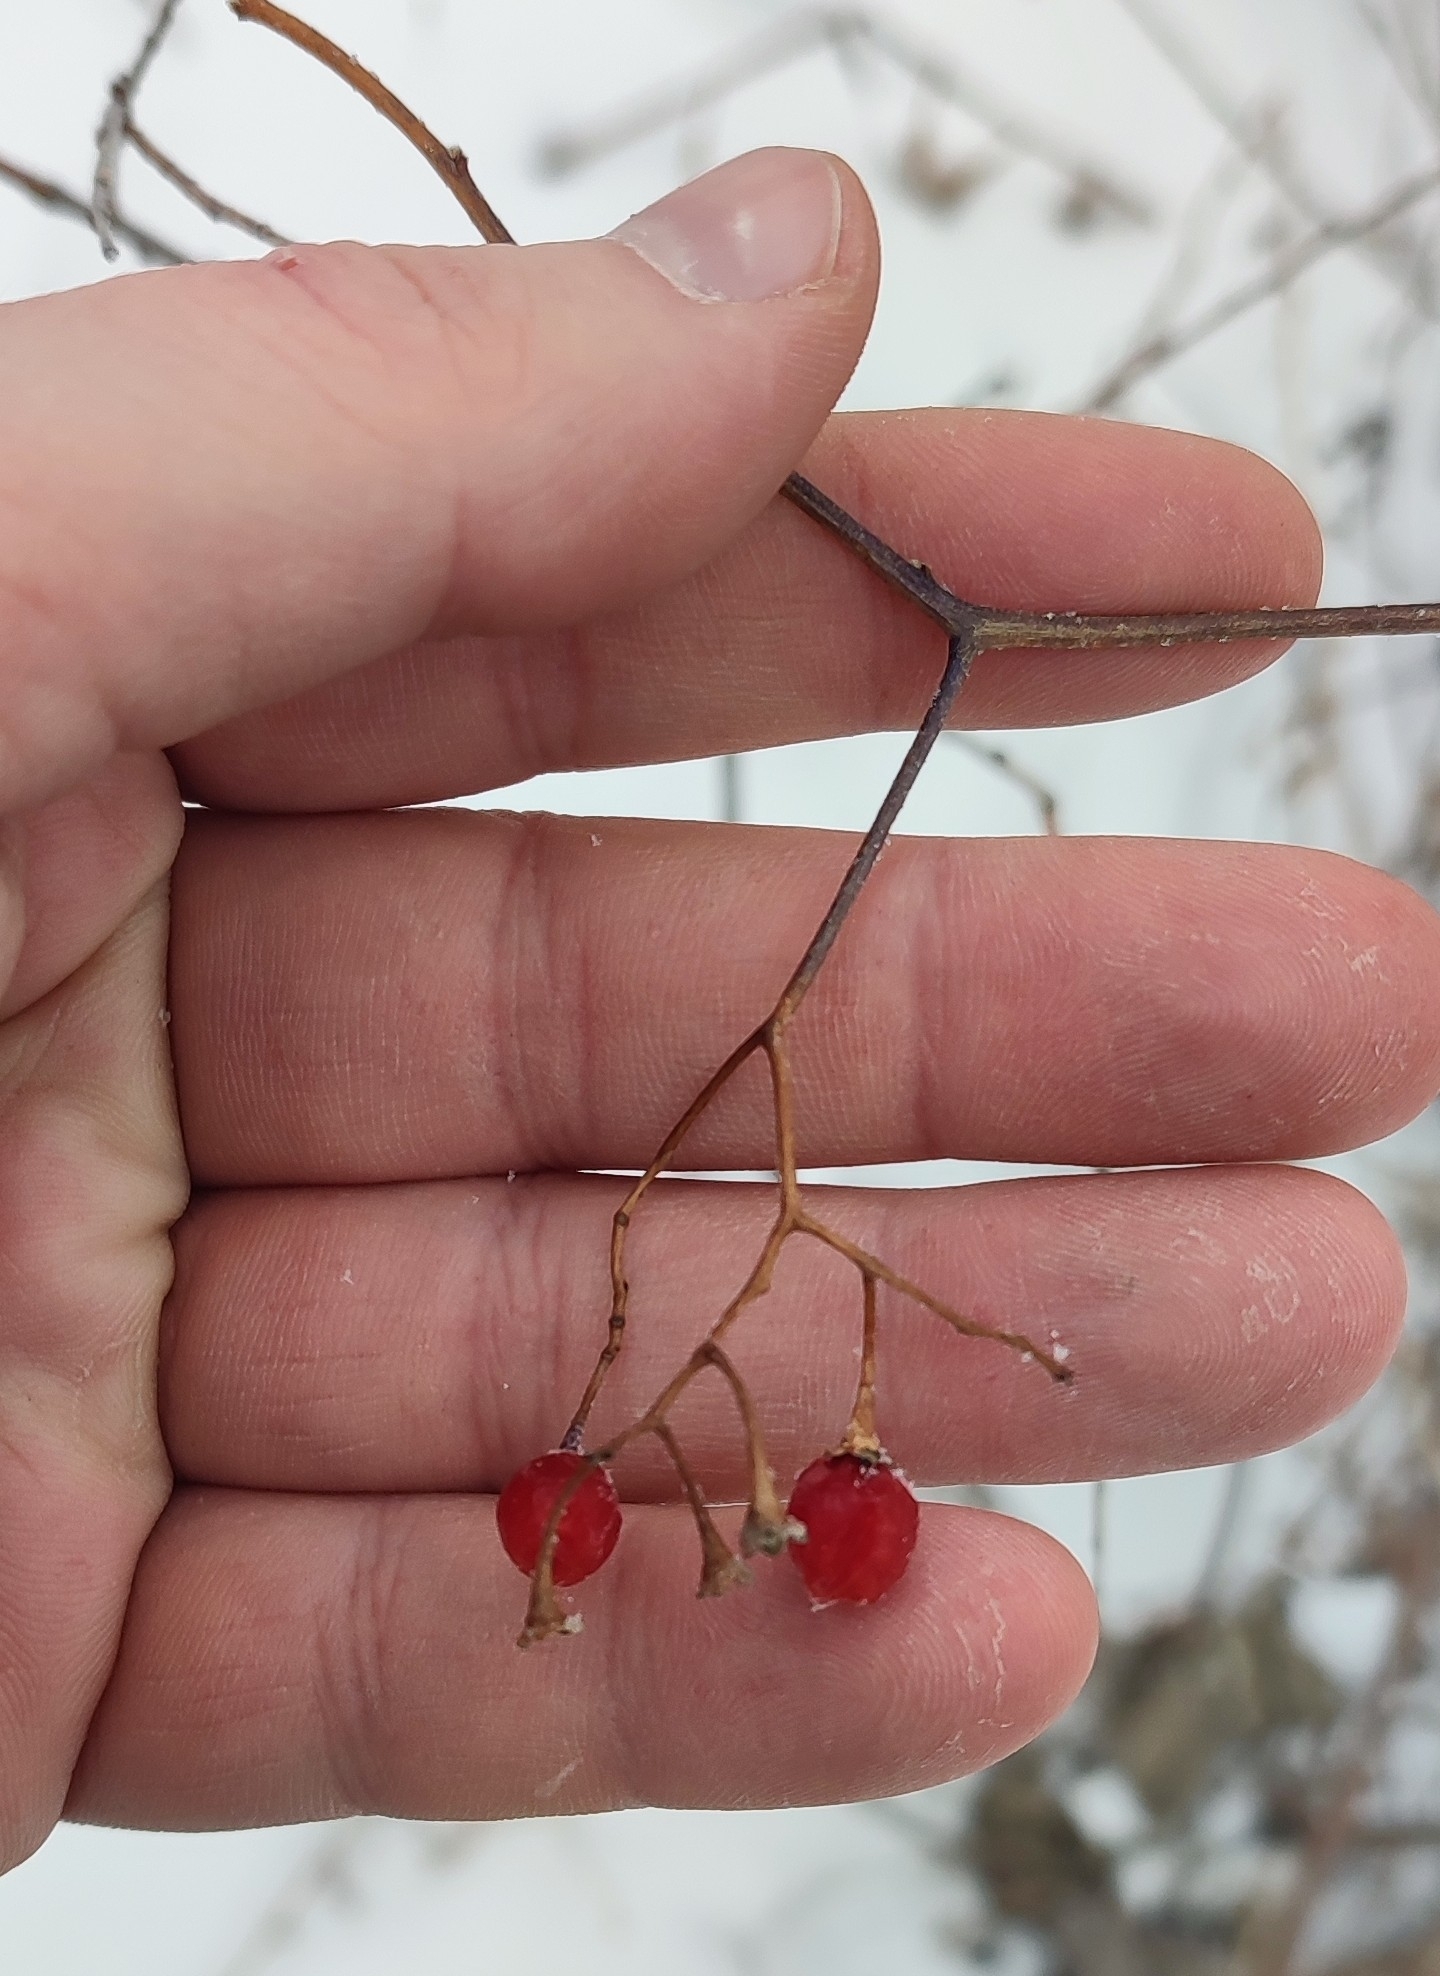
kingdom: Plantae
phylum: Tracheophyta
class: Magnoliopsida
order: Solanales
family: Solanaceae
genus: Solanum
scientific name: Solanum dulcamara
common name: Climbing nightshade
